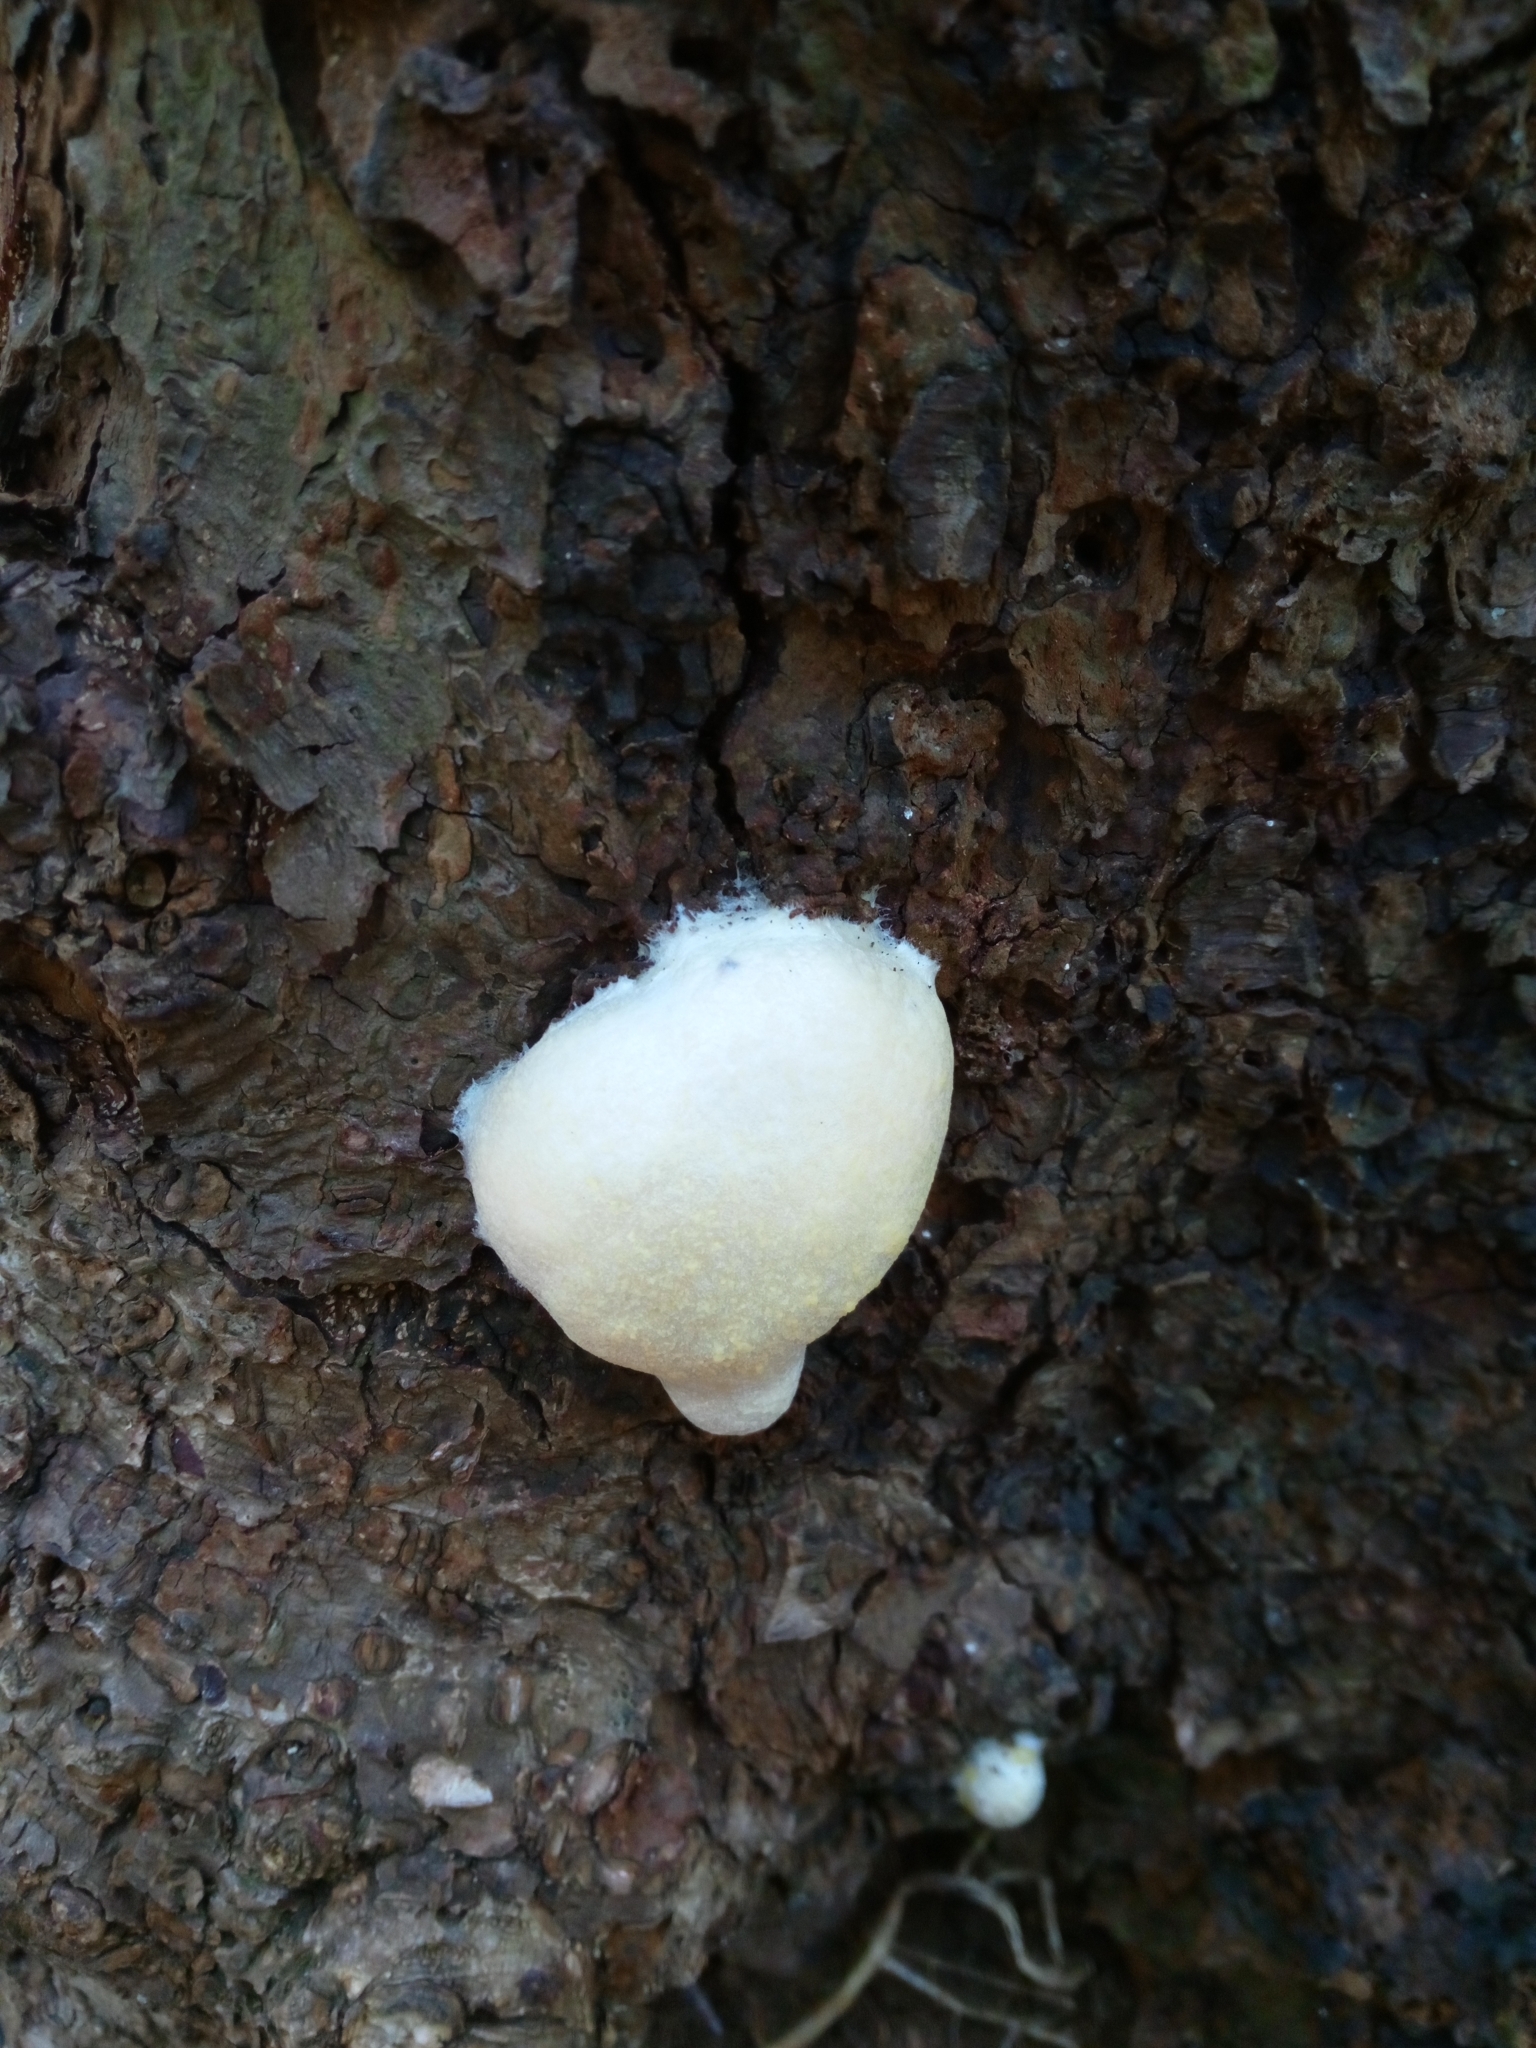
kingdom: Protozoa
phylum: Mycetozoa
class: Myxomycetes
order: Cribrariales
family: Tubiferaceae
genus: Reticularia
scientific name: Reticularia lycoperdon
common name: False puffball
